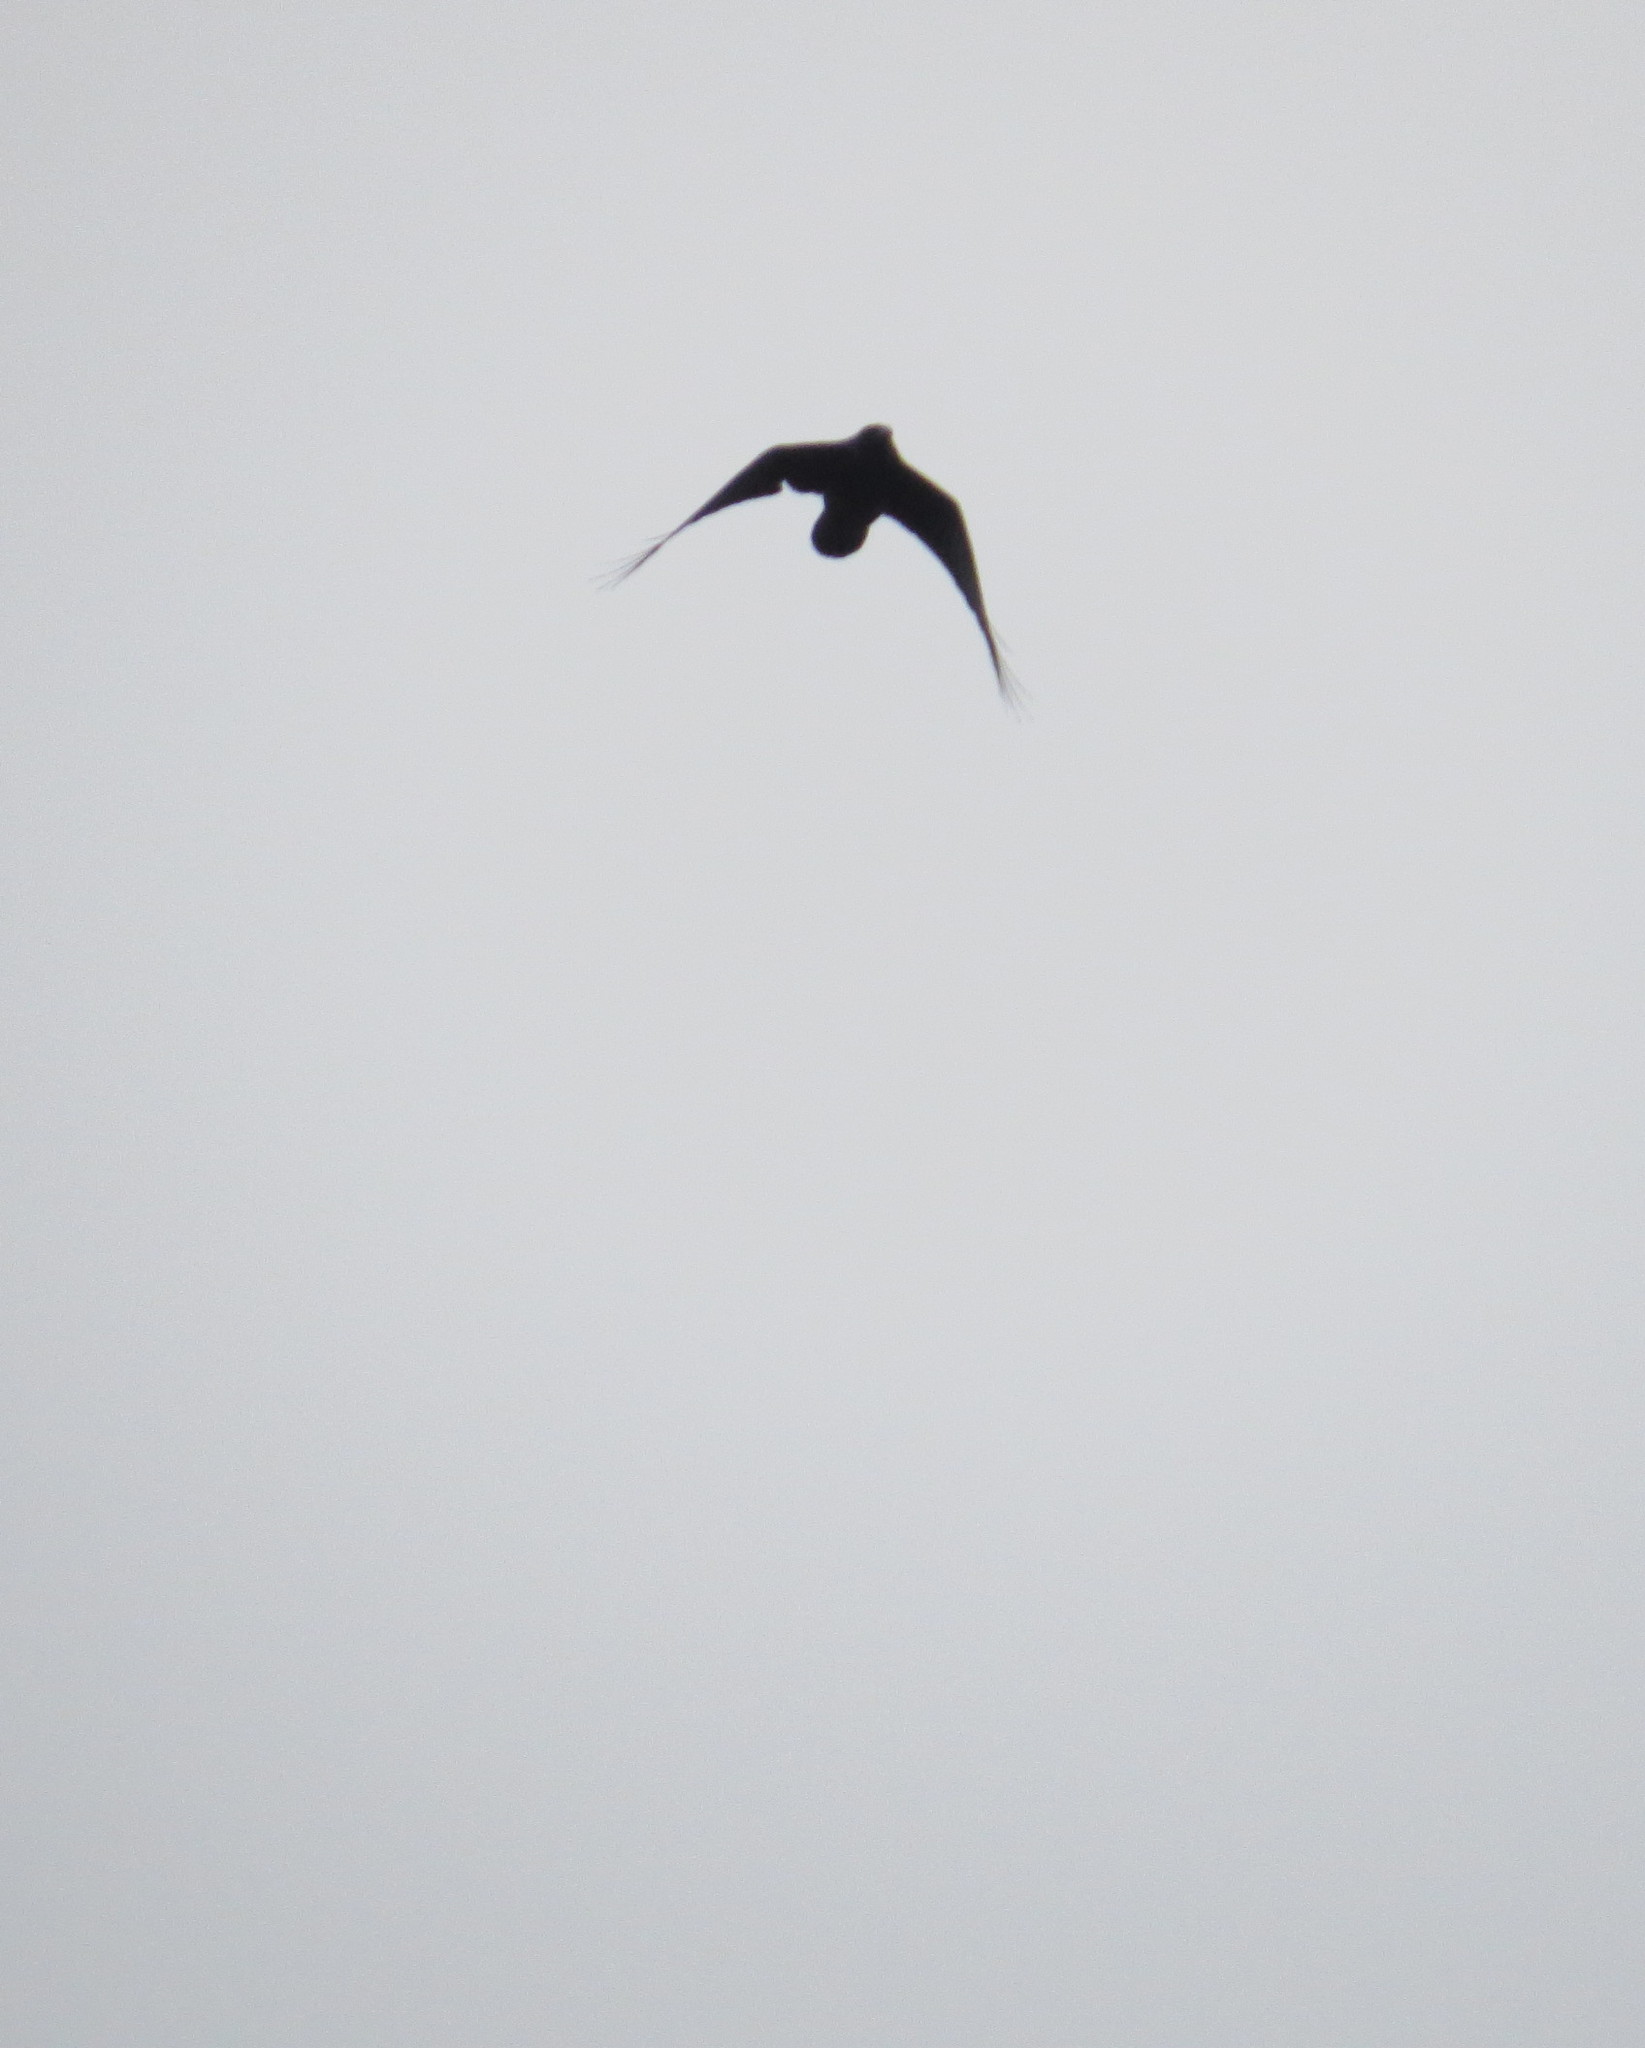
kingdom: Animalia
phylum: Chordata
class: Aves
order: Passeriformes
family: Corvidae
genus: Corvus
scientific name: Corvus corax
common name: Common raven
